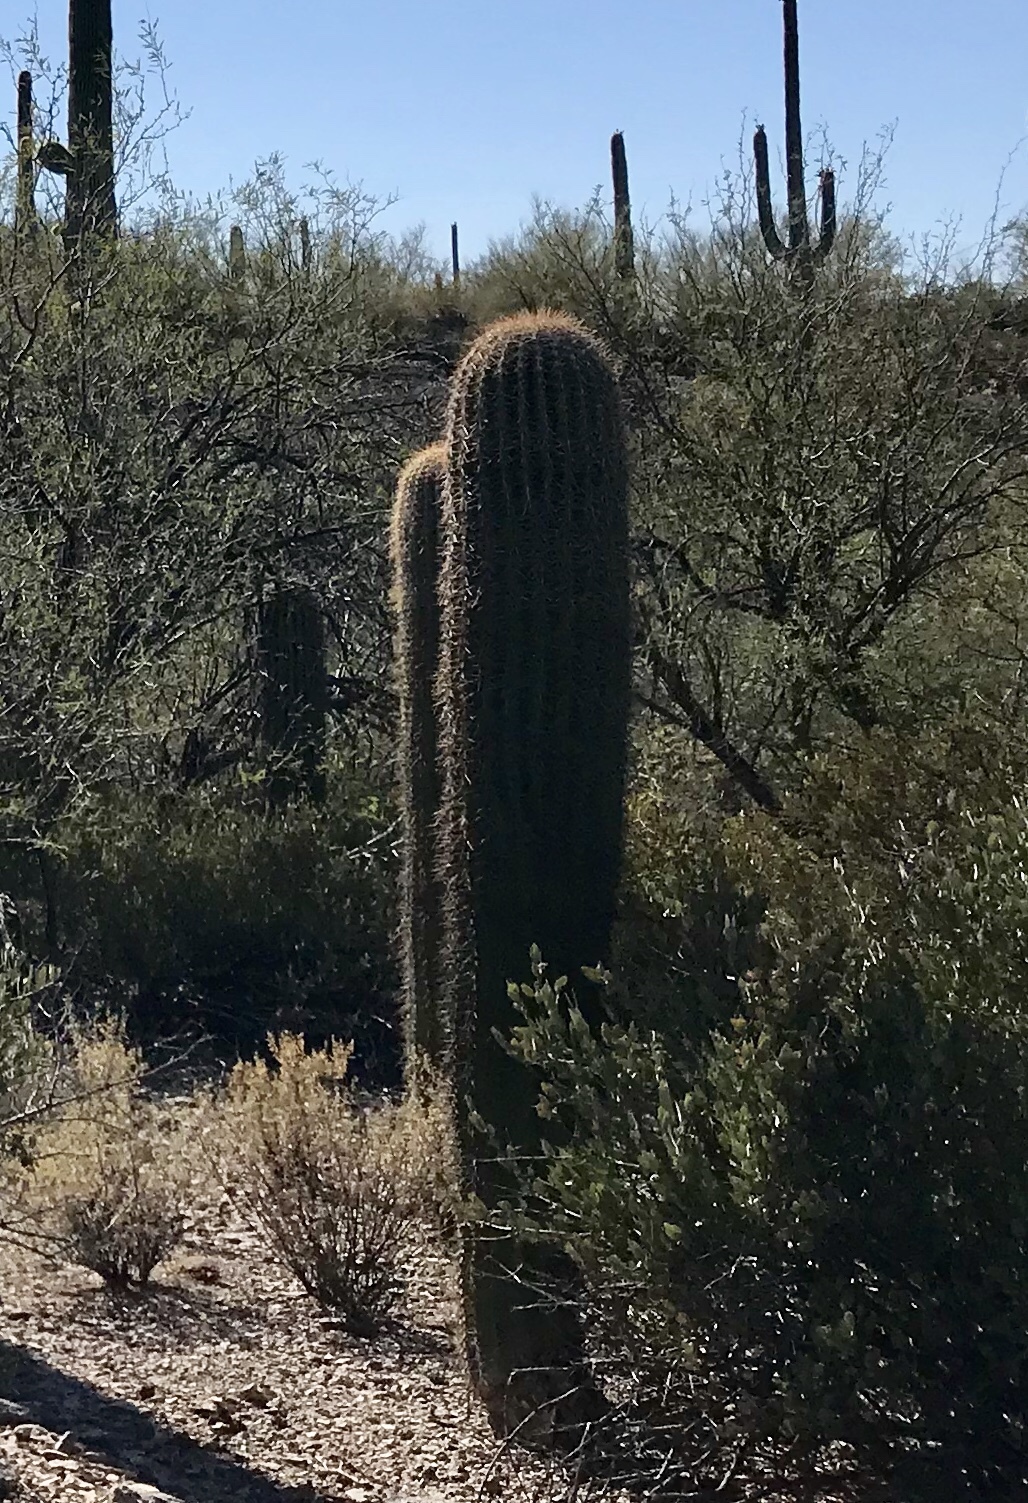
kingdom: Plantae
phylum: Tracheophyta
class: Magnoliopsida
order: Caryophyllales
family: Cactaceae
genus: Carnegiea
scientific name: Carnegiea gigantea
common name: Saguaro
